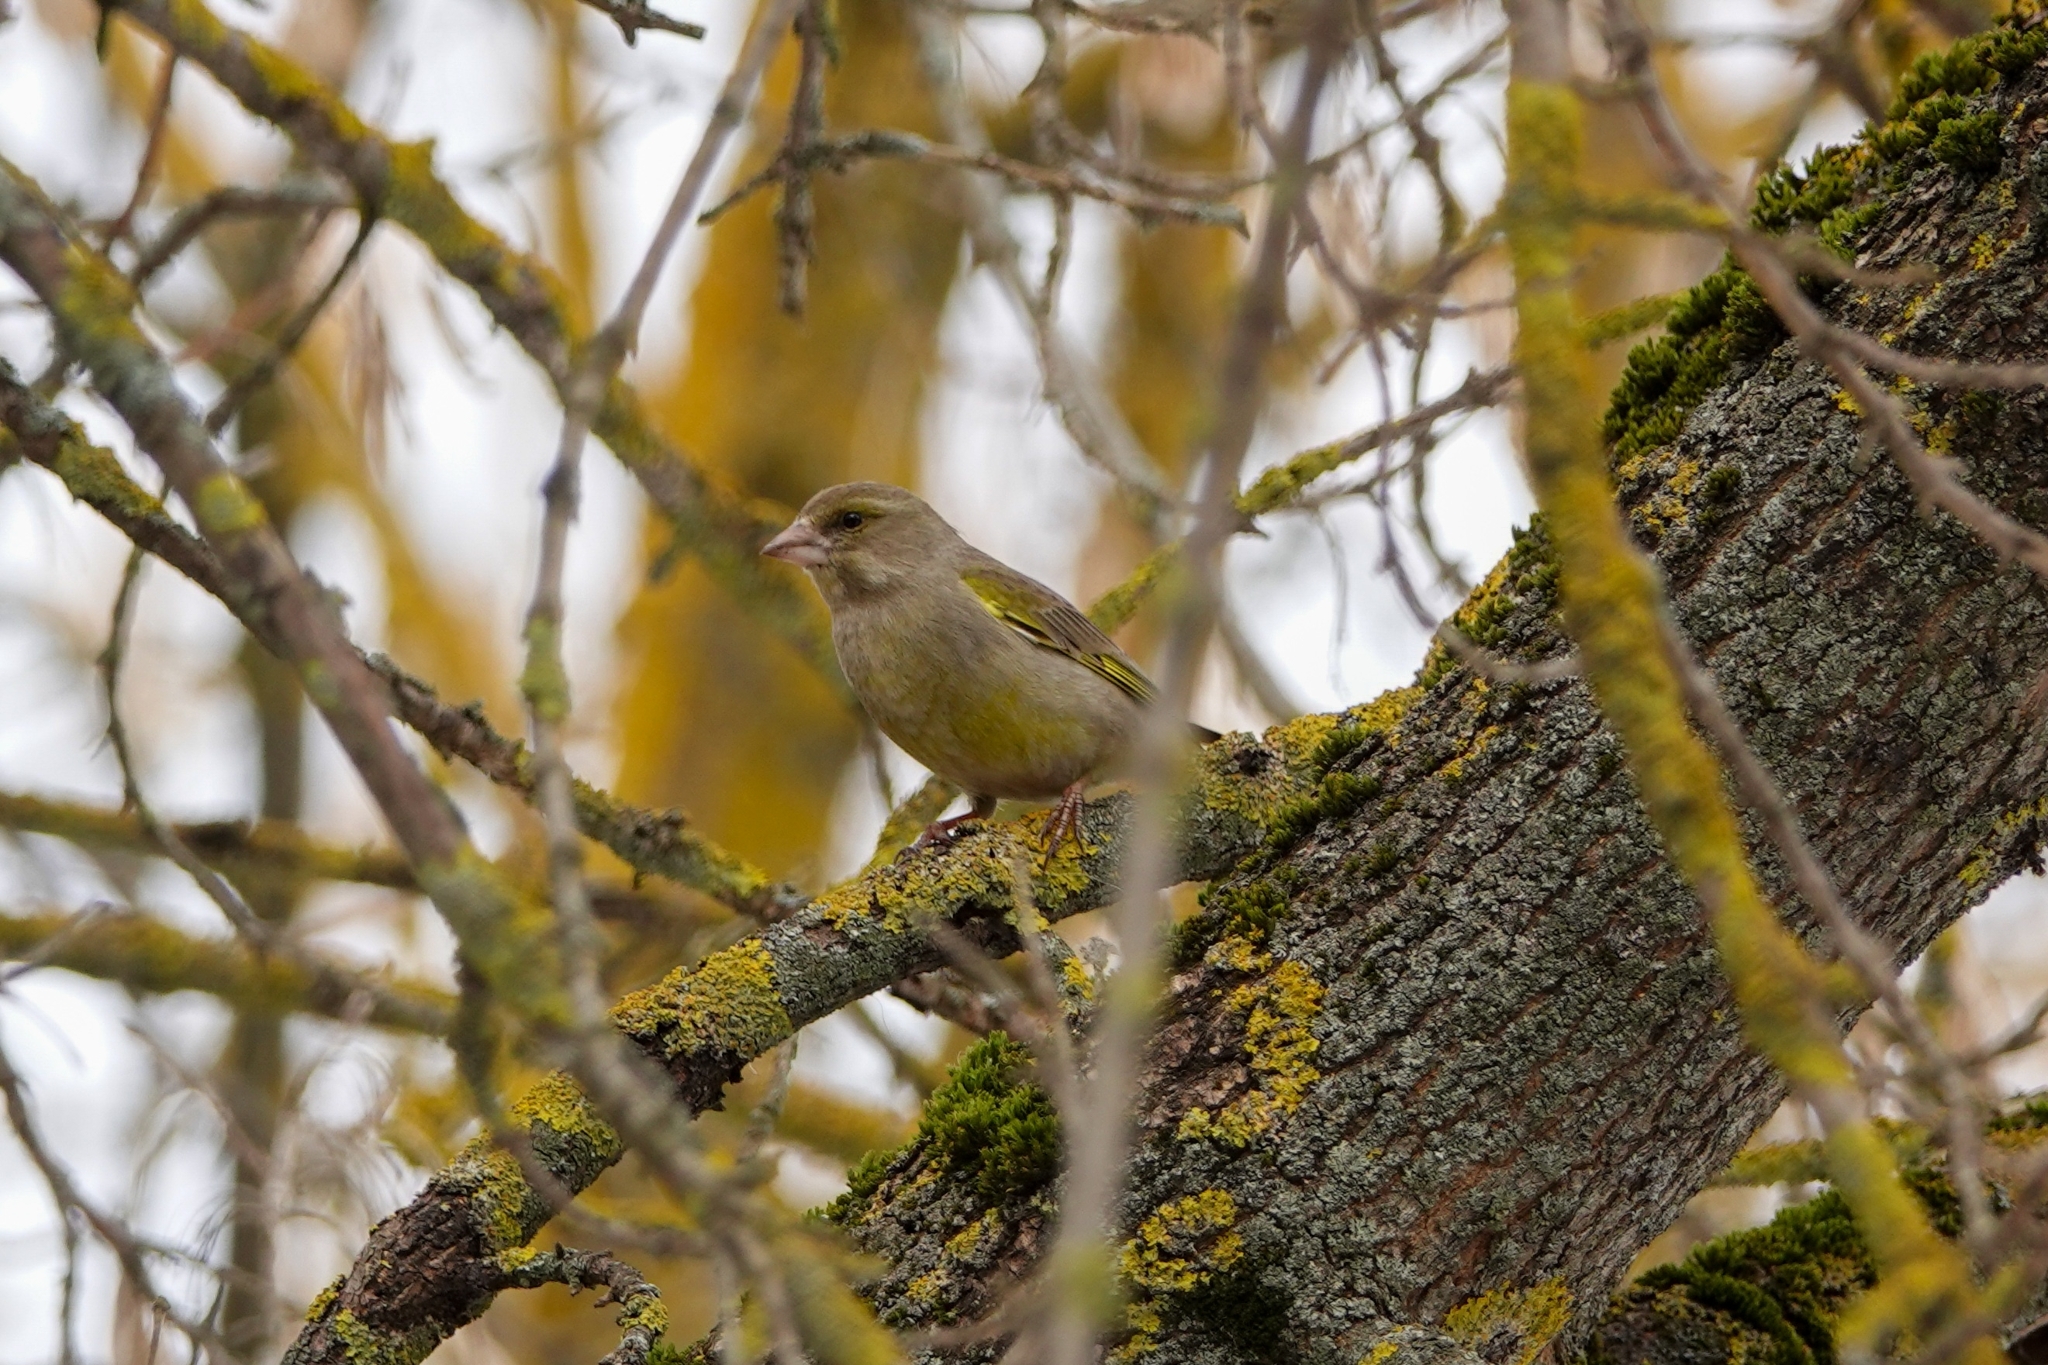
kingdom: Plantae
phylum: Tracheophyta
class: Liliopsida
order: Poales
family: Poaceae
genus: Chloris
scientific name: Chloris chloris
